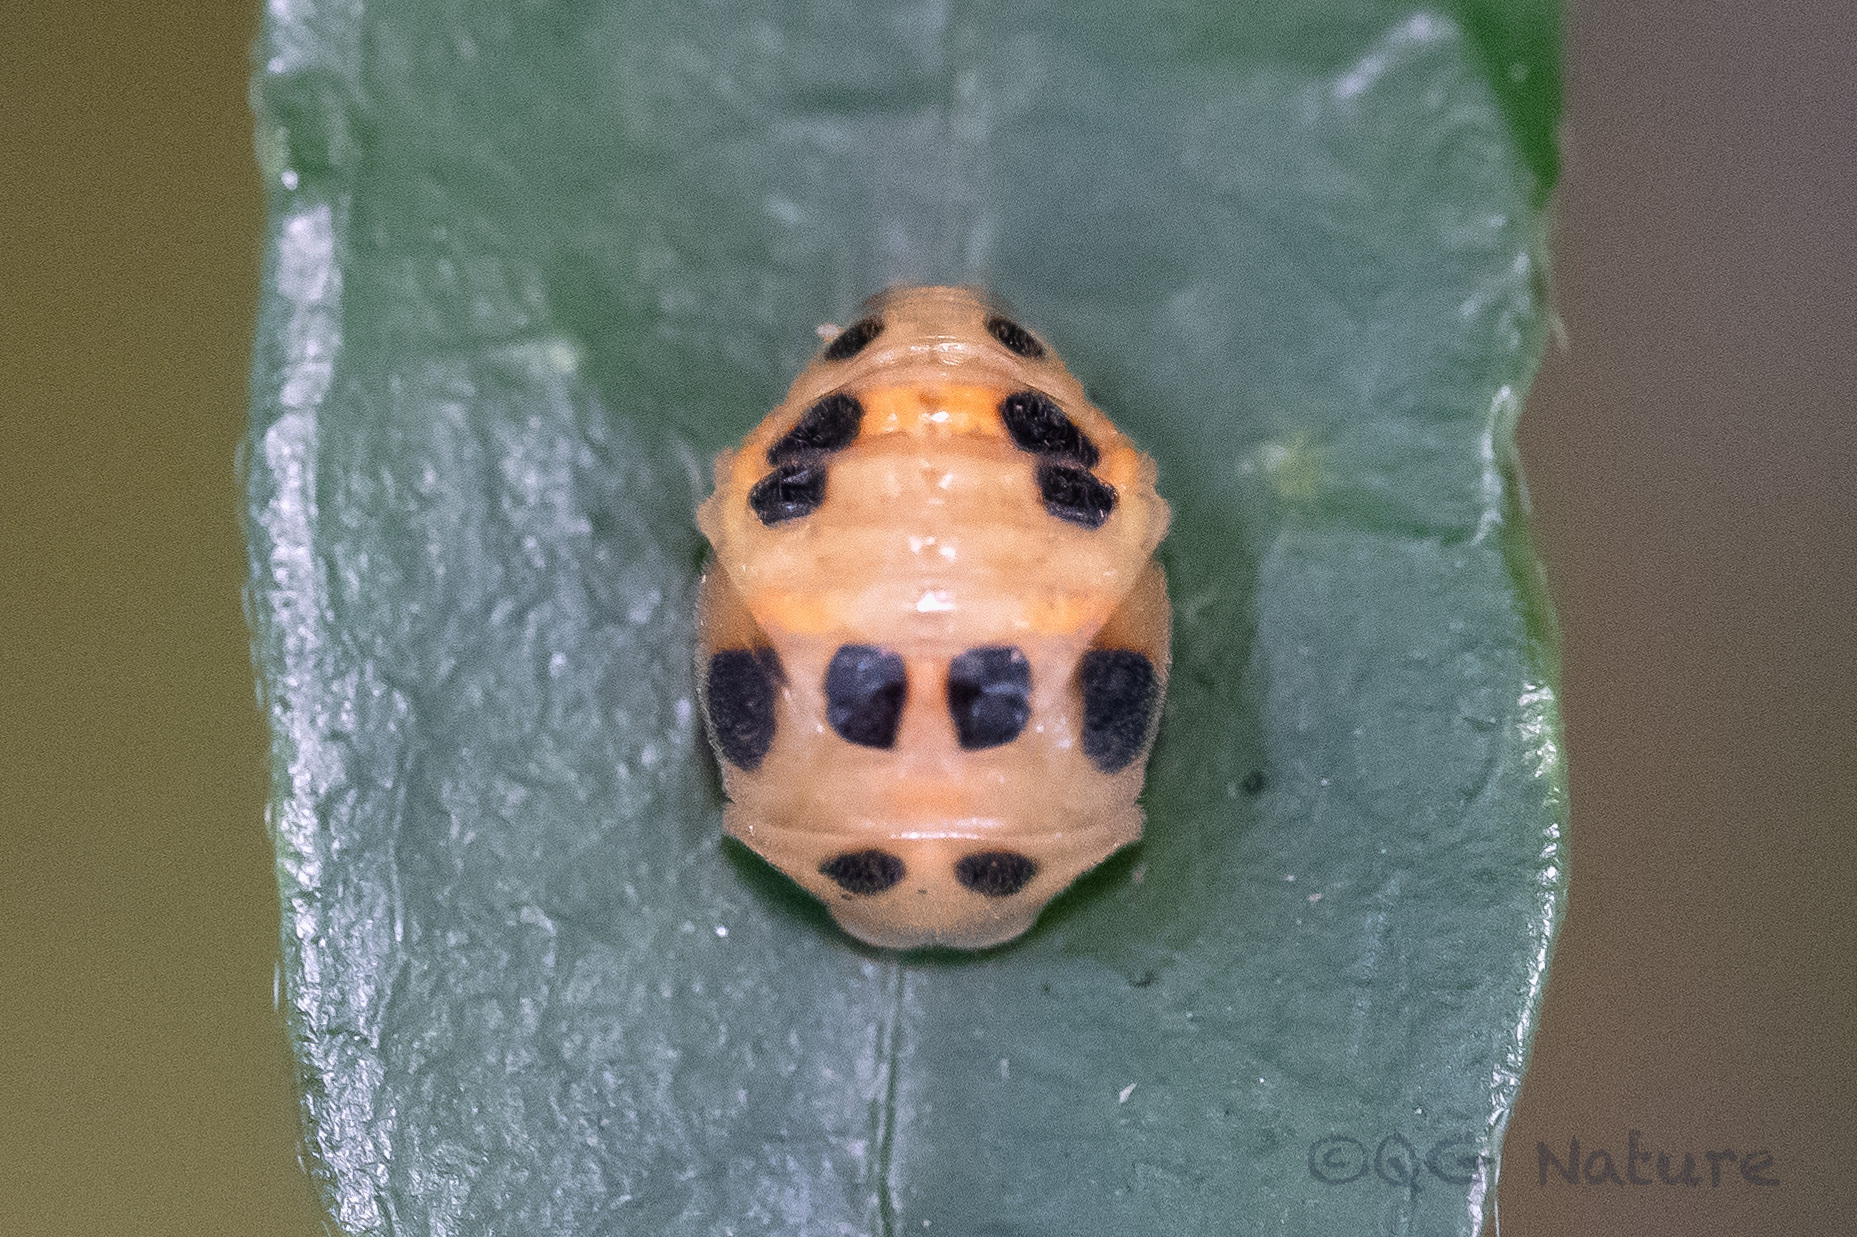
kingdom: Animalia
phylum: Arthropoda
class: Insecta
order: Coleoptera
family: Coccinellidae
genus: Coelophora
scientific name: Coelophora saucia
